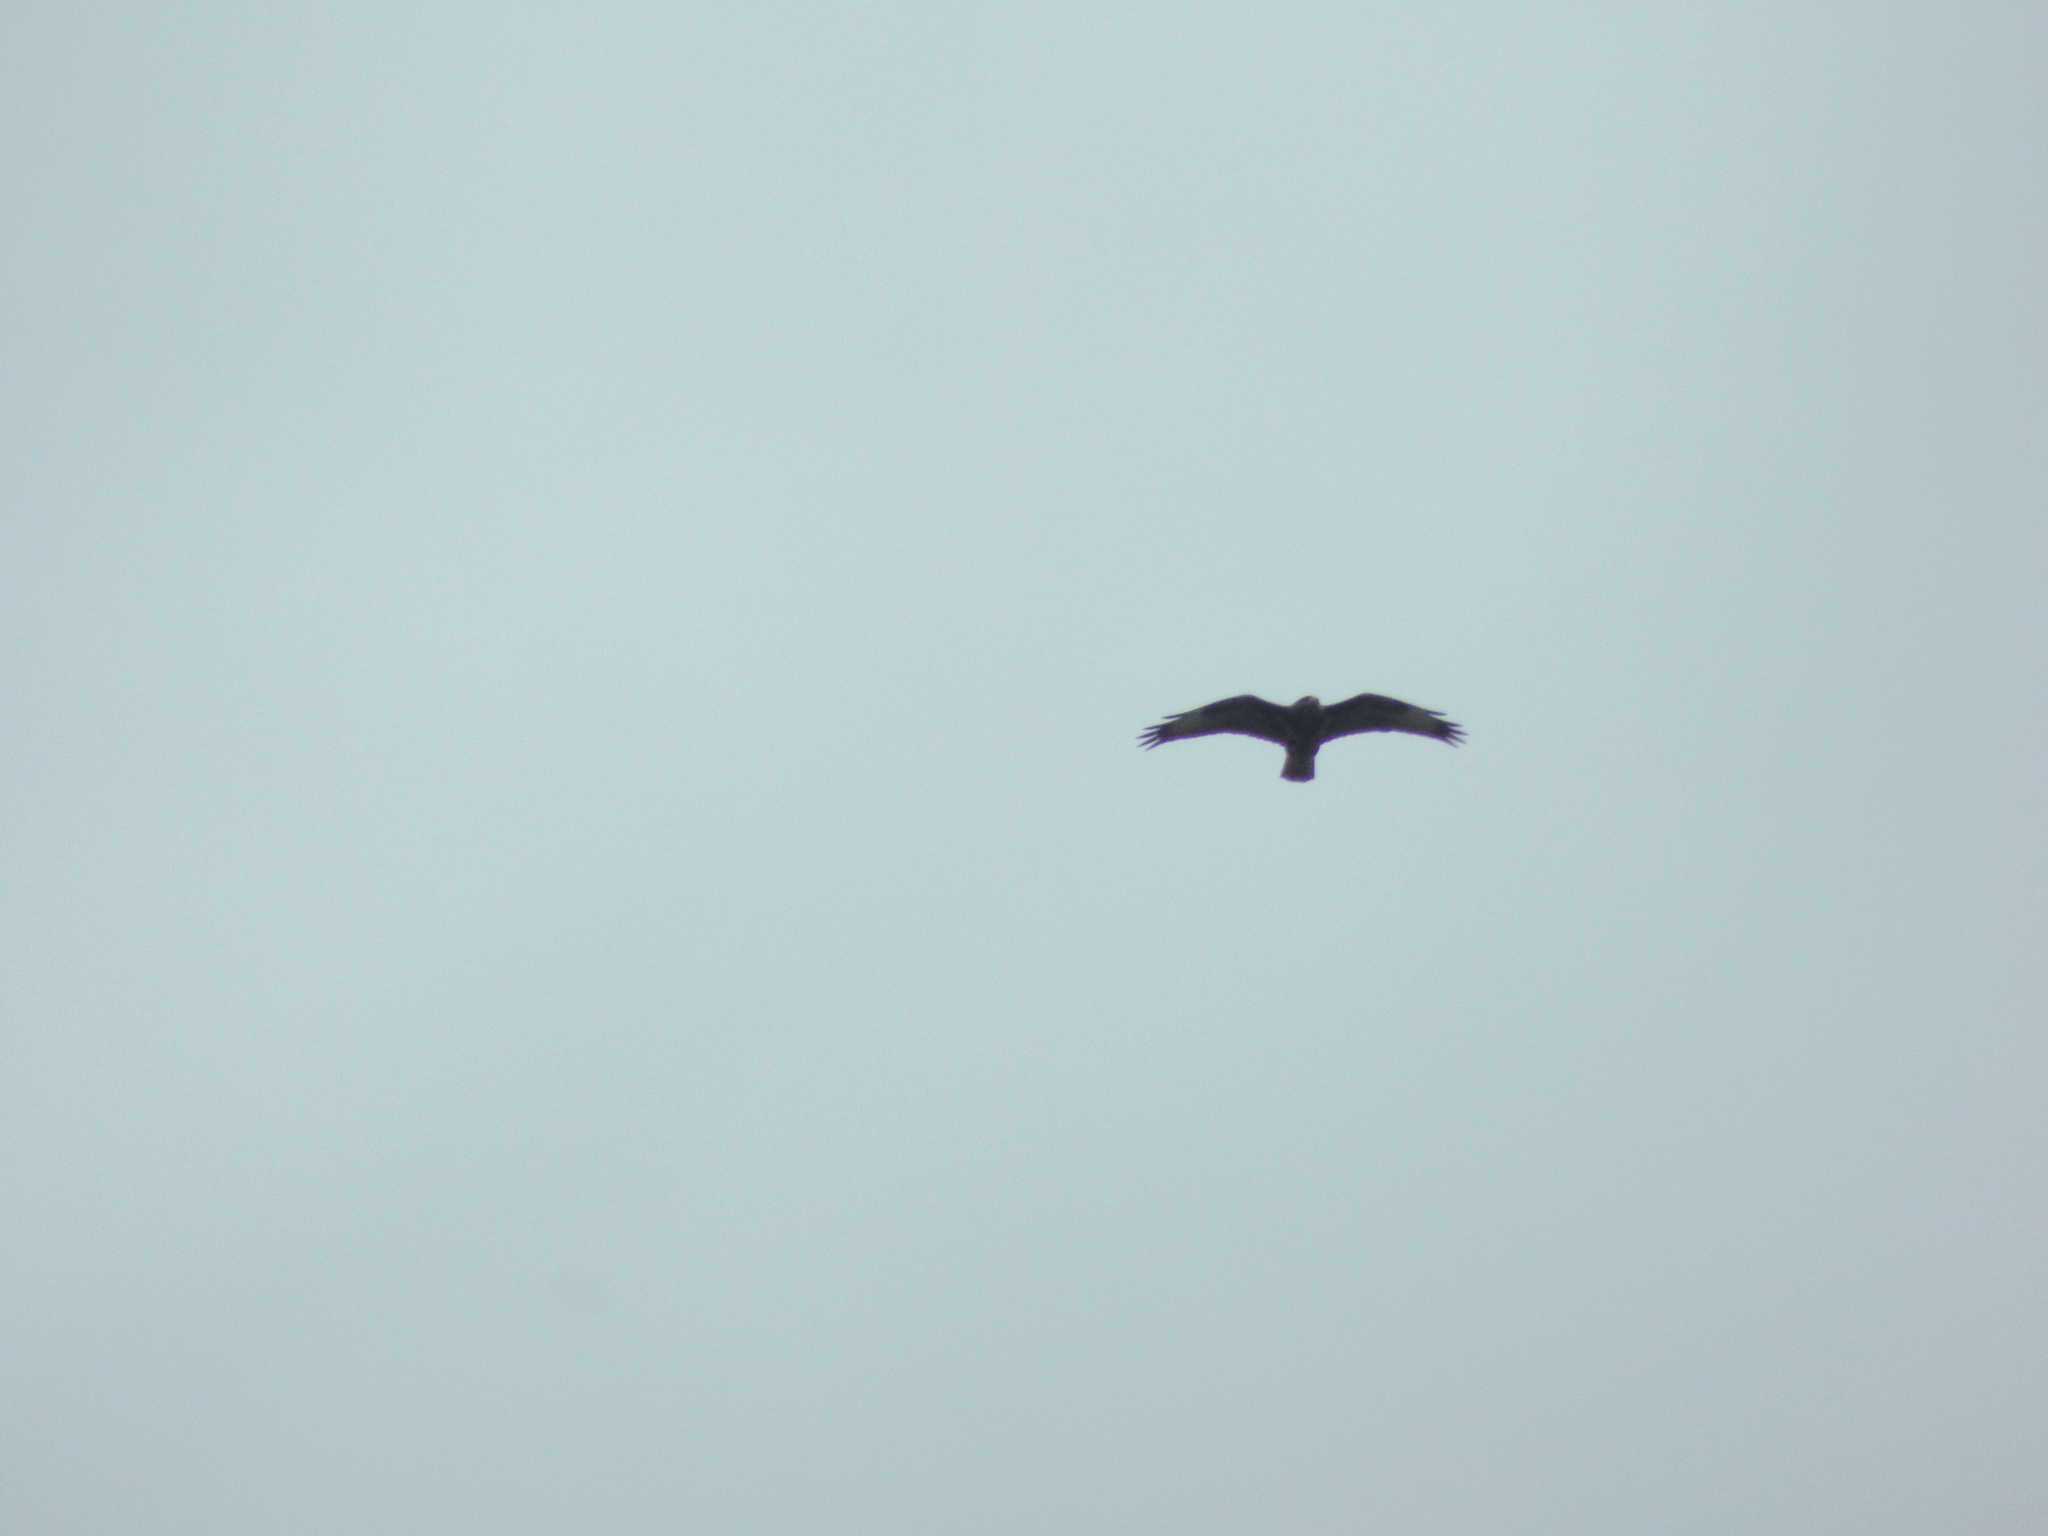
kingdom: Animalia
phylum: Chordata
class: Aves
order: Accipitriformes
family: Accipitridae
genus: Buteo
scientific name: Buteo buteo
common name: Common buzzard
